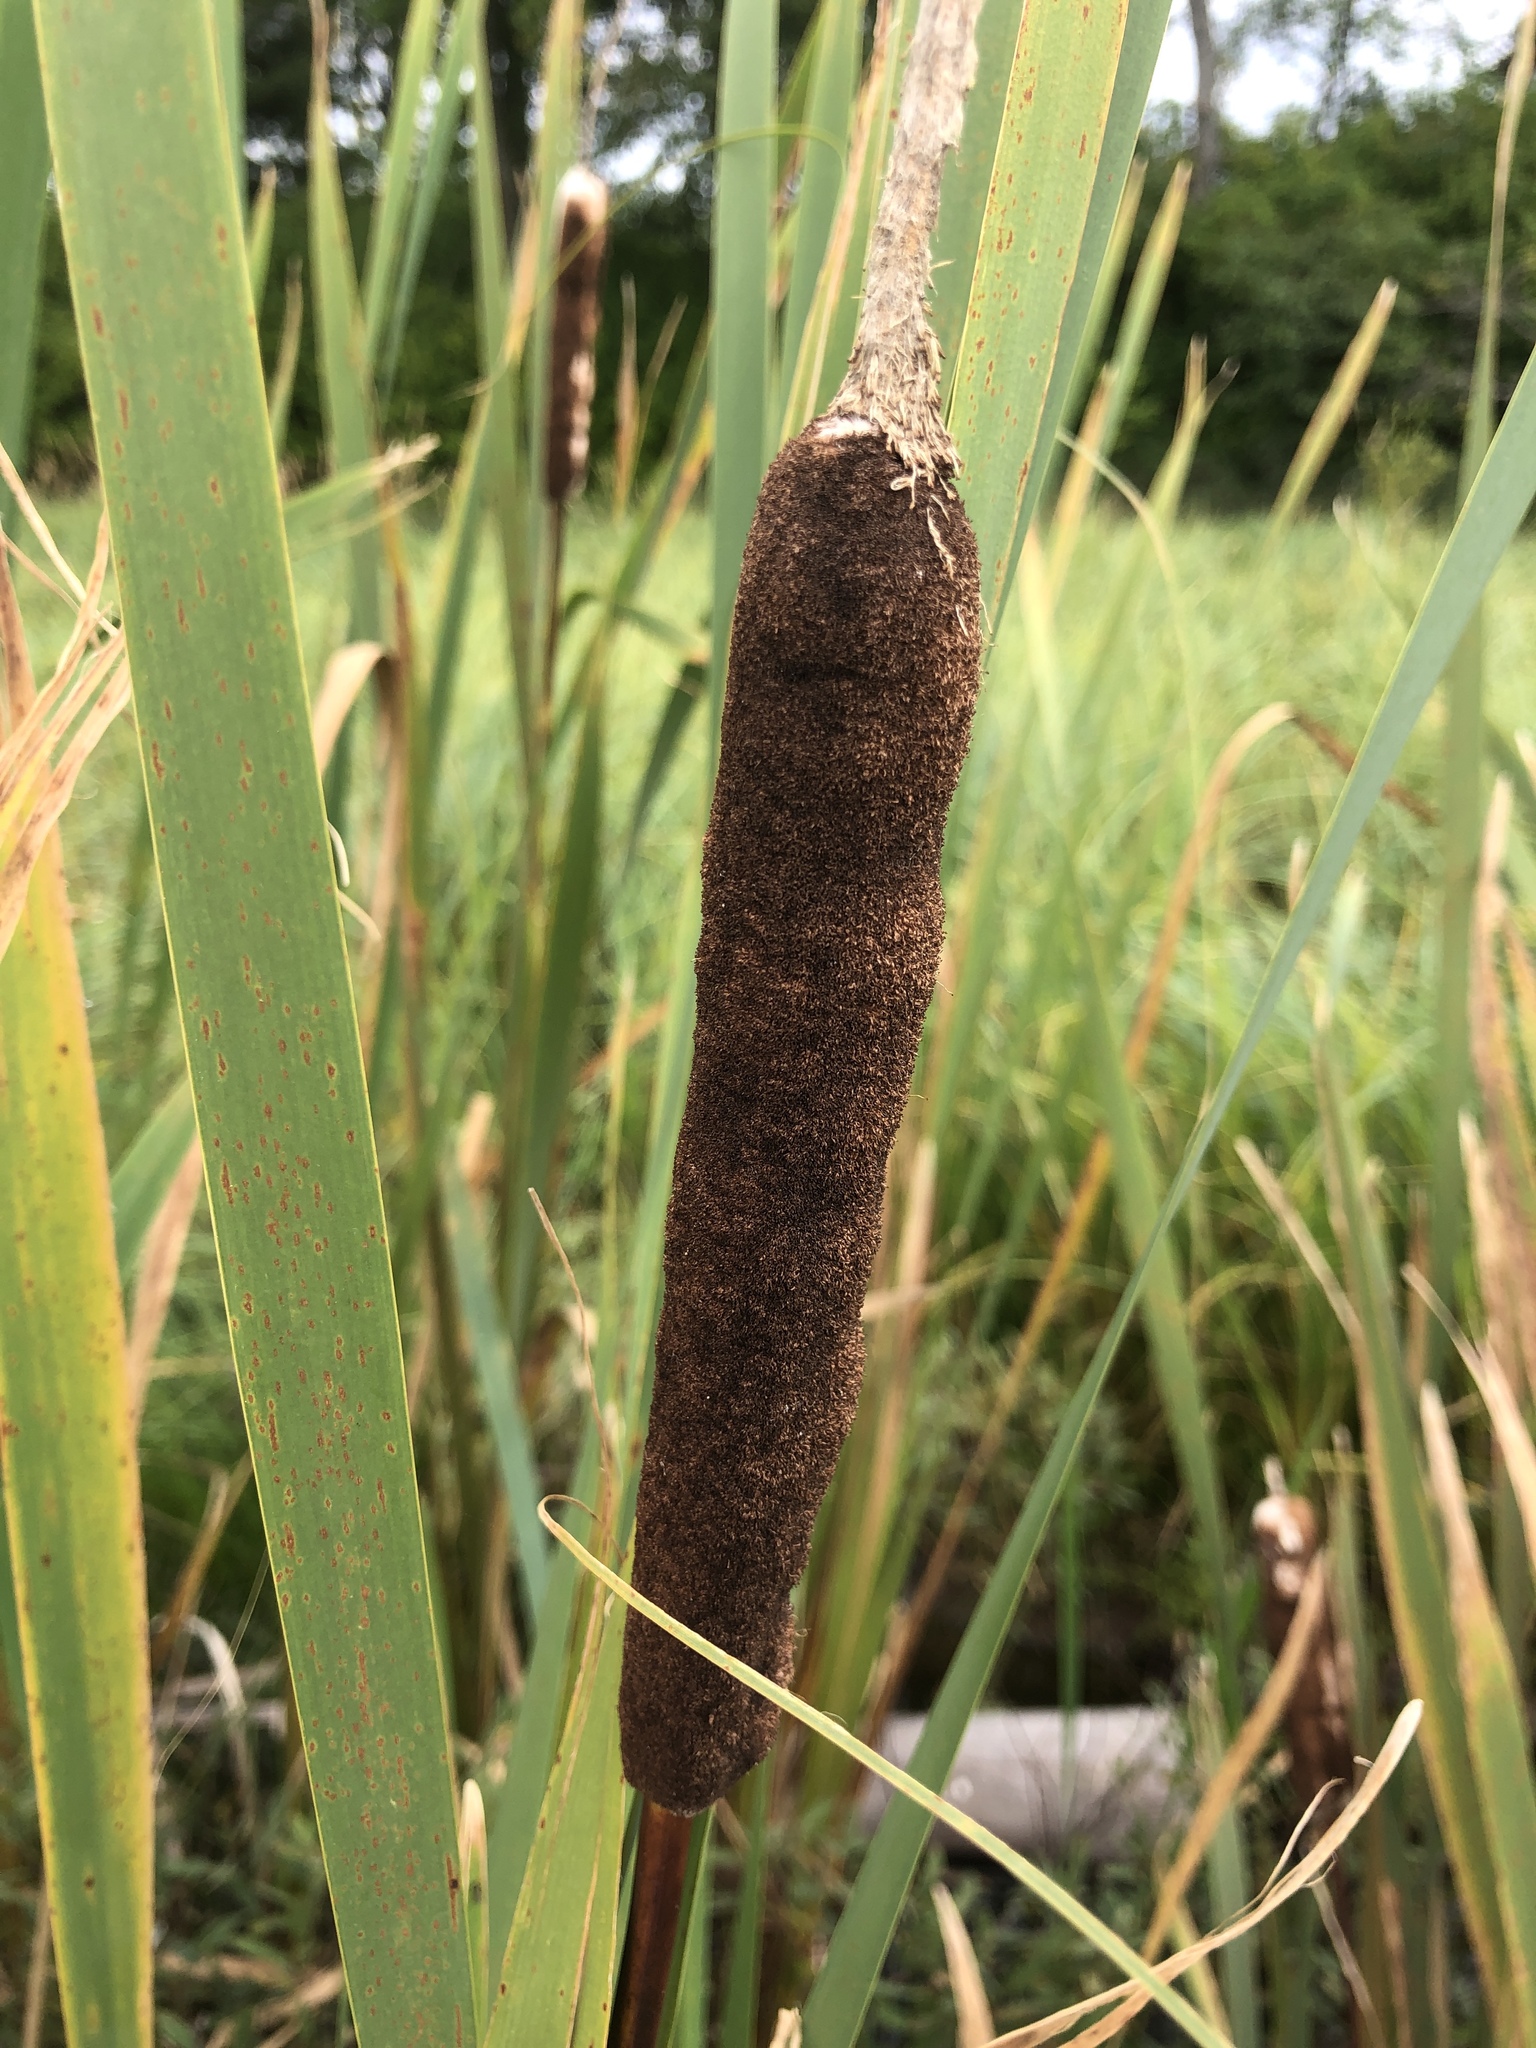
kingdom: Plantae
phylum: Tracheophyta
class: Liliopsida
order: Poales
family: Typhaceae
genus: Typha
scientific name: Typha latifolia
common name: Broadleaf cattail
